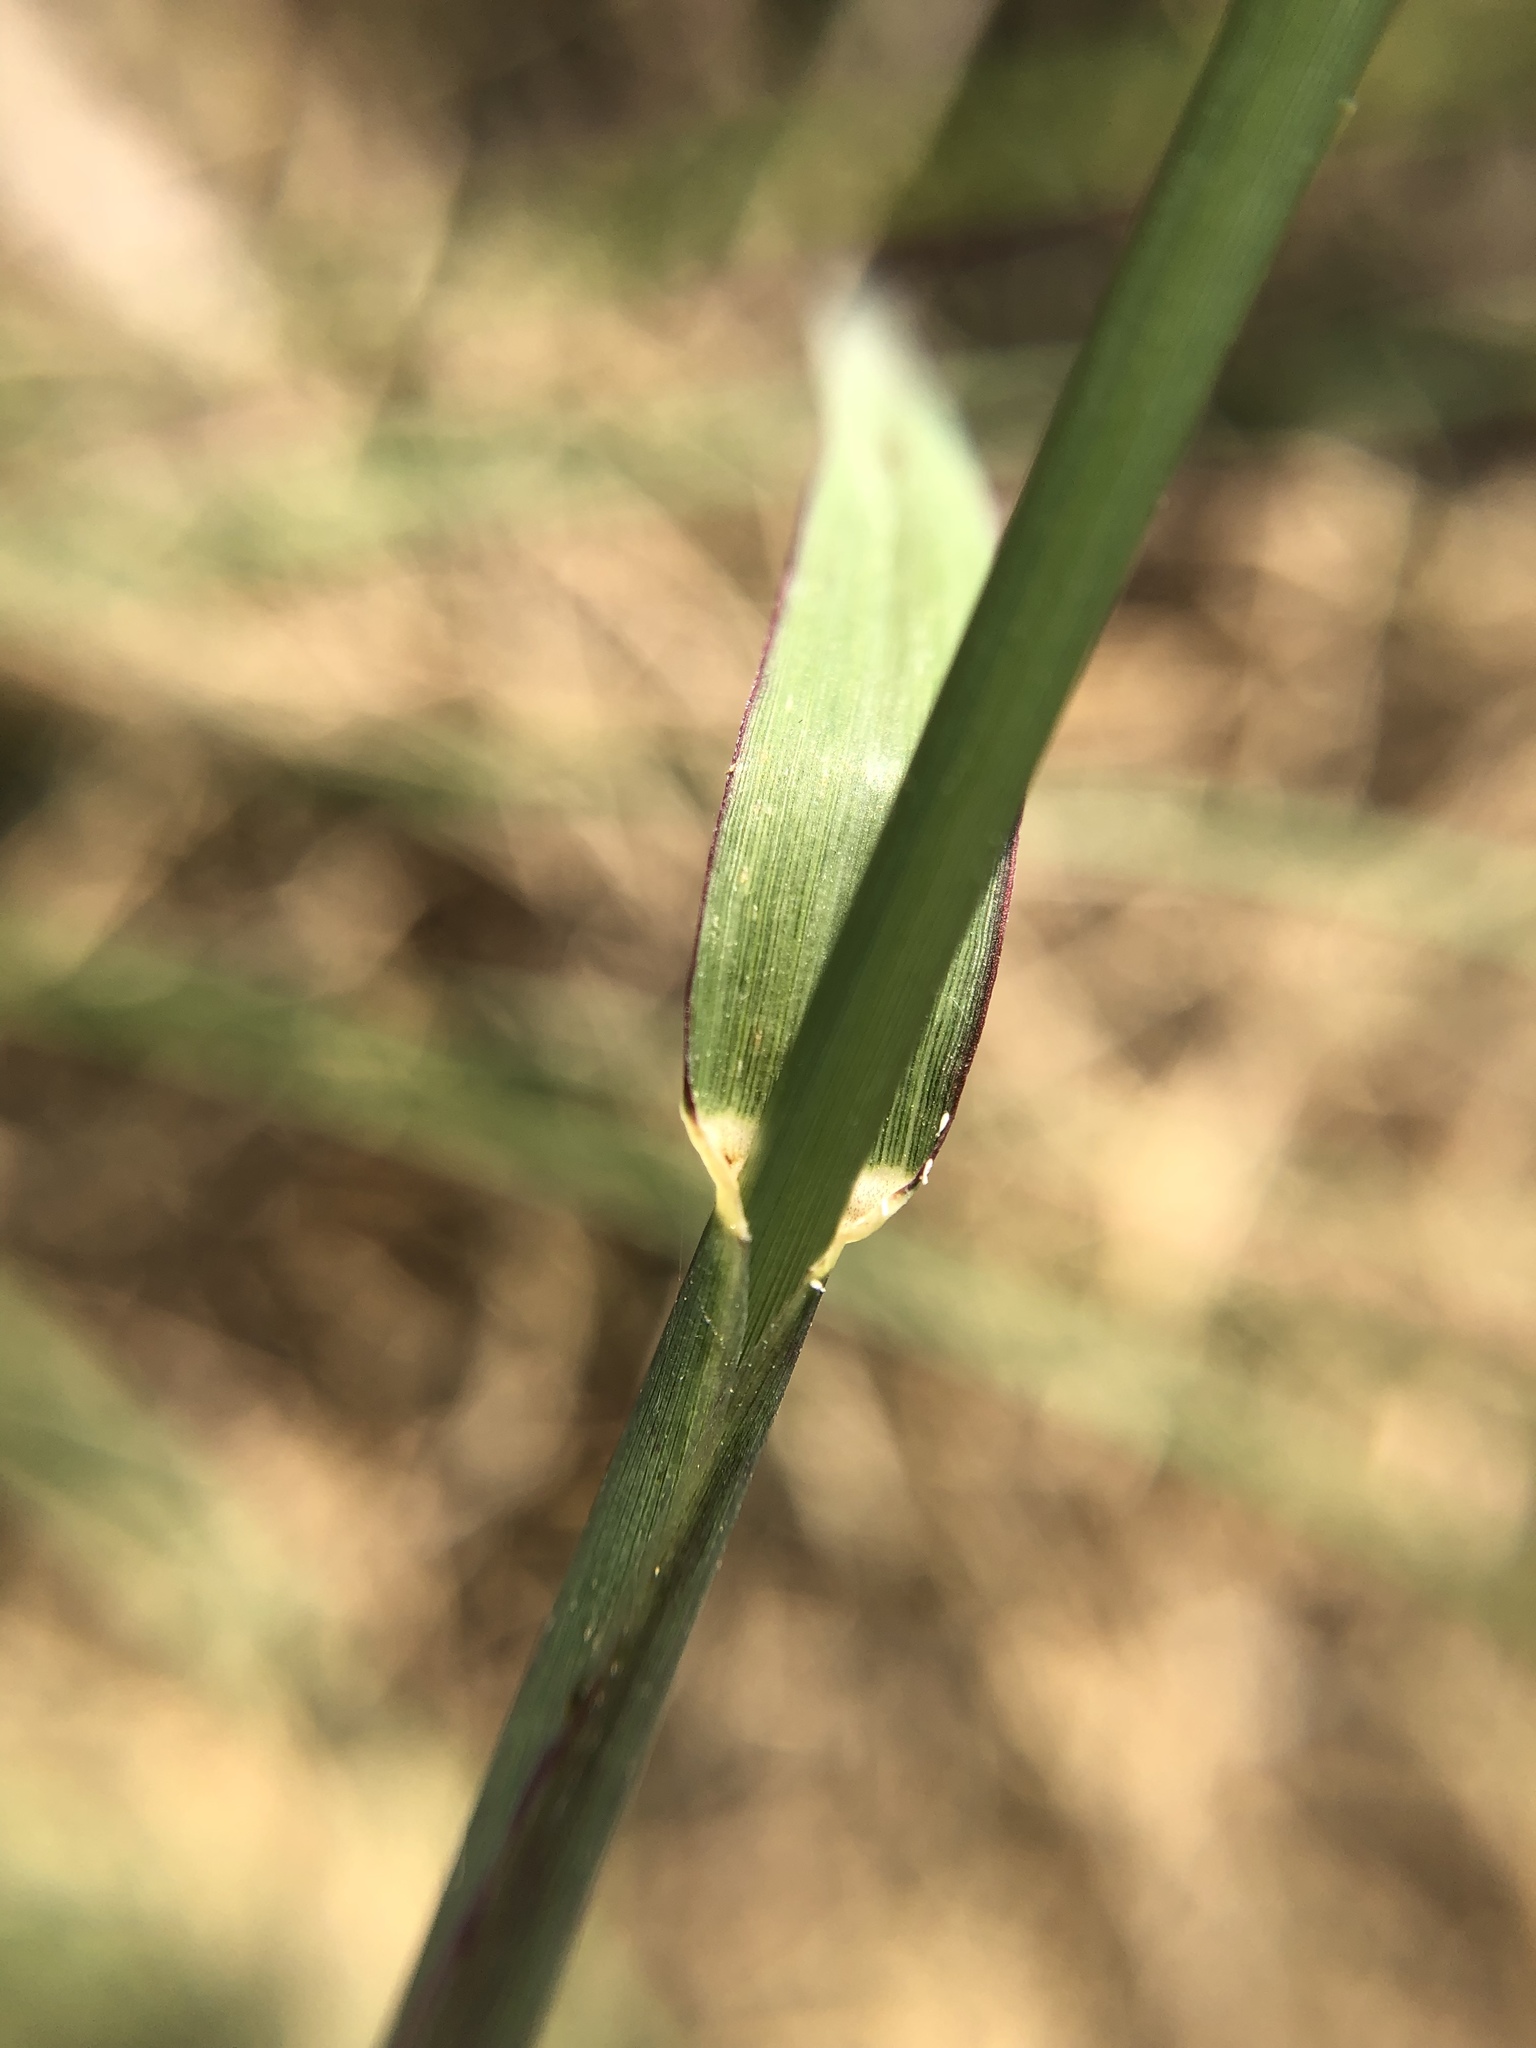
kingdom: Plantae
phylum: Tracheophyta
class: Liliopsida
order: Poales
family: Poaceae
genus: Chloris
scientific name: Chloris formosana
